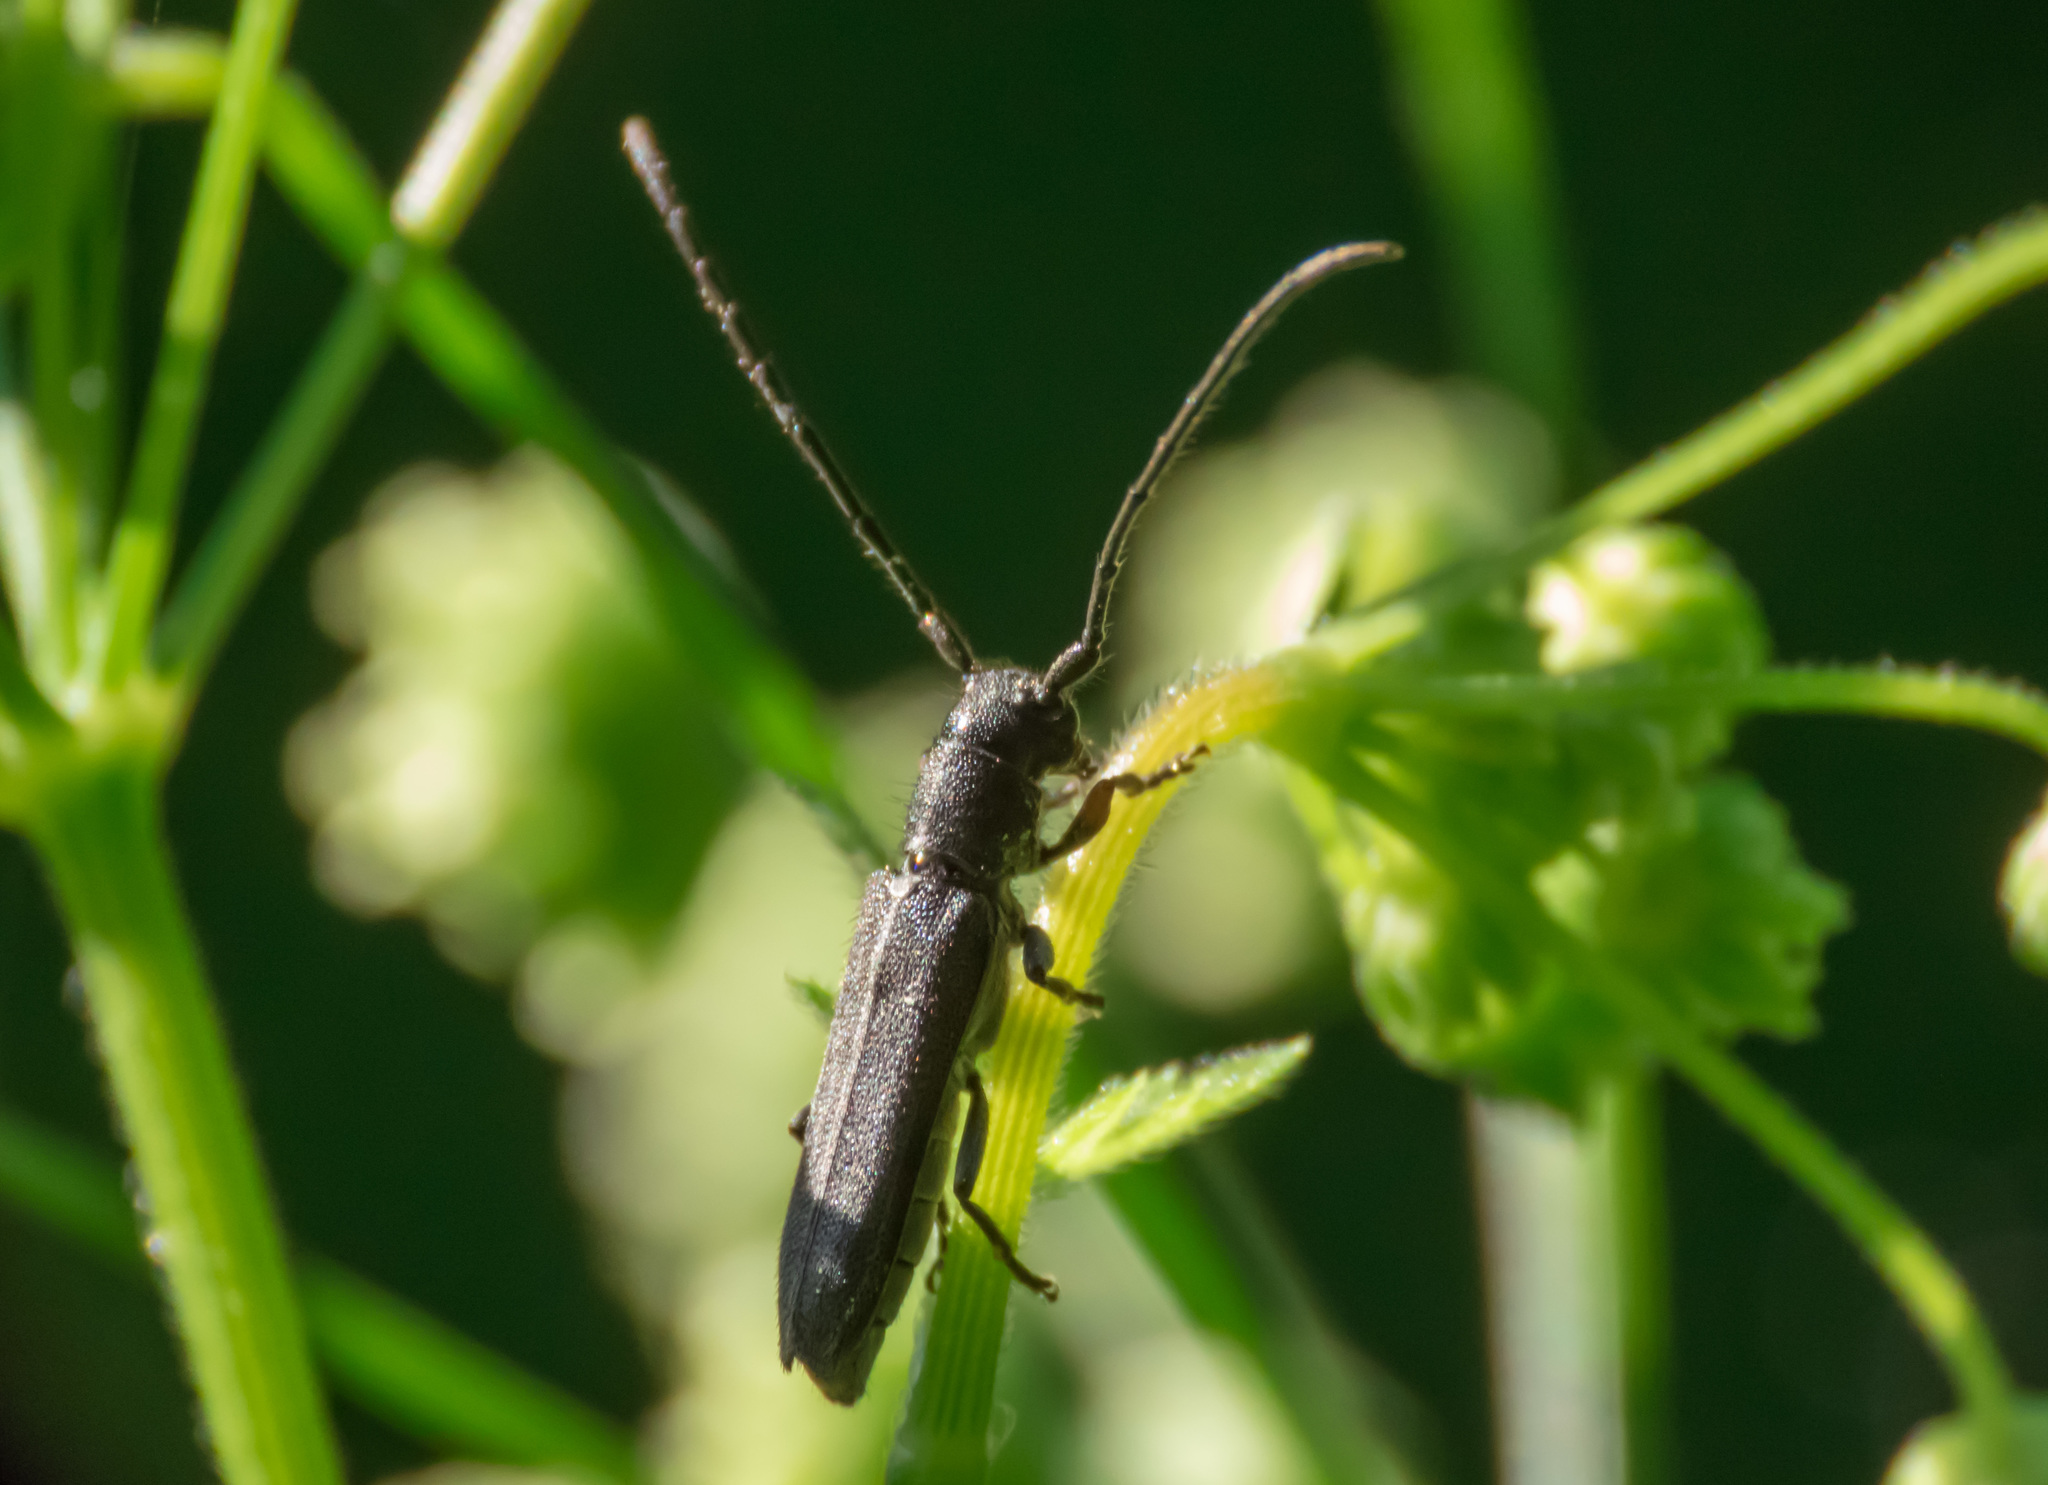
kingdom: Animalia
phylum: Arthropoda
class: Insecta
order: Coleoptera
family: Cerambycidae
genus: Phytoecia
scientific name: Phytoecia cylindrica
